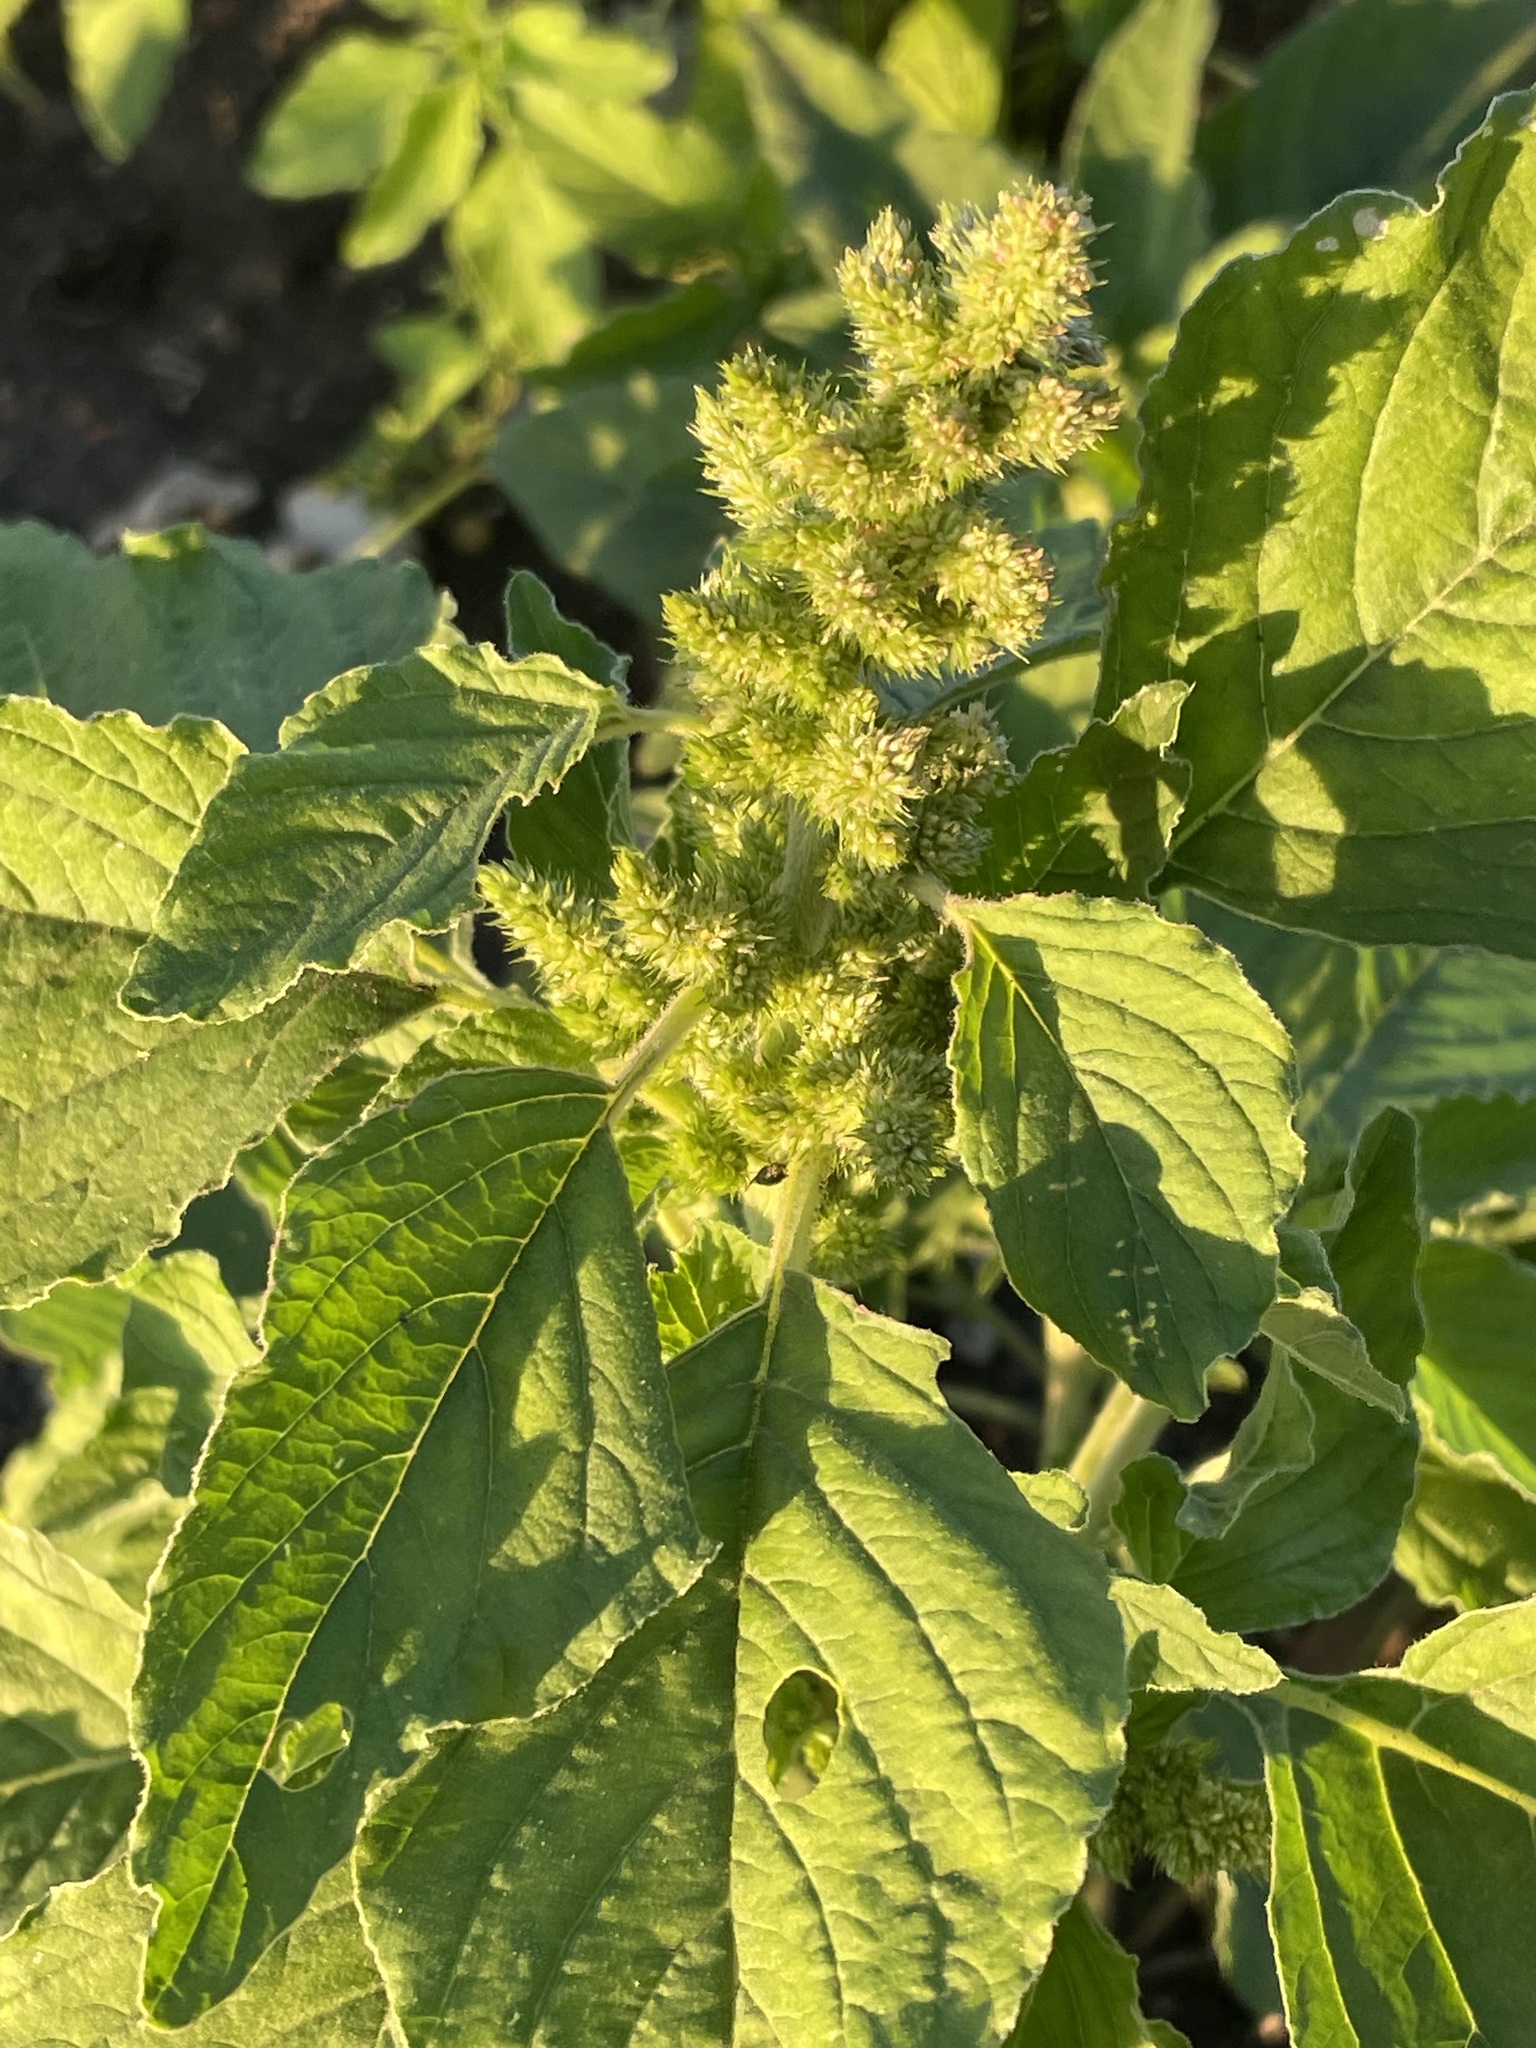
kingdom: Plantae
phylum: Tracheophyta
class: Magnoliopsida
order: Caryophyllales
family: Amaranthaceae
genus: Amaranthus
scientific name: Amaranthus retroflexus
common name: Redroot amaranth
